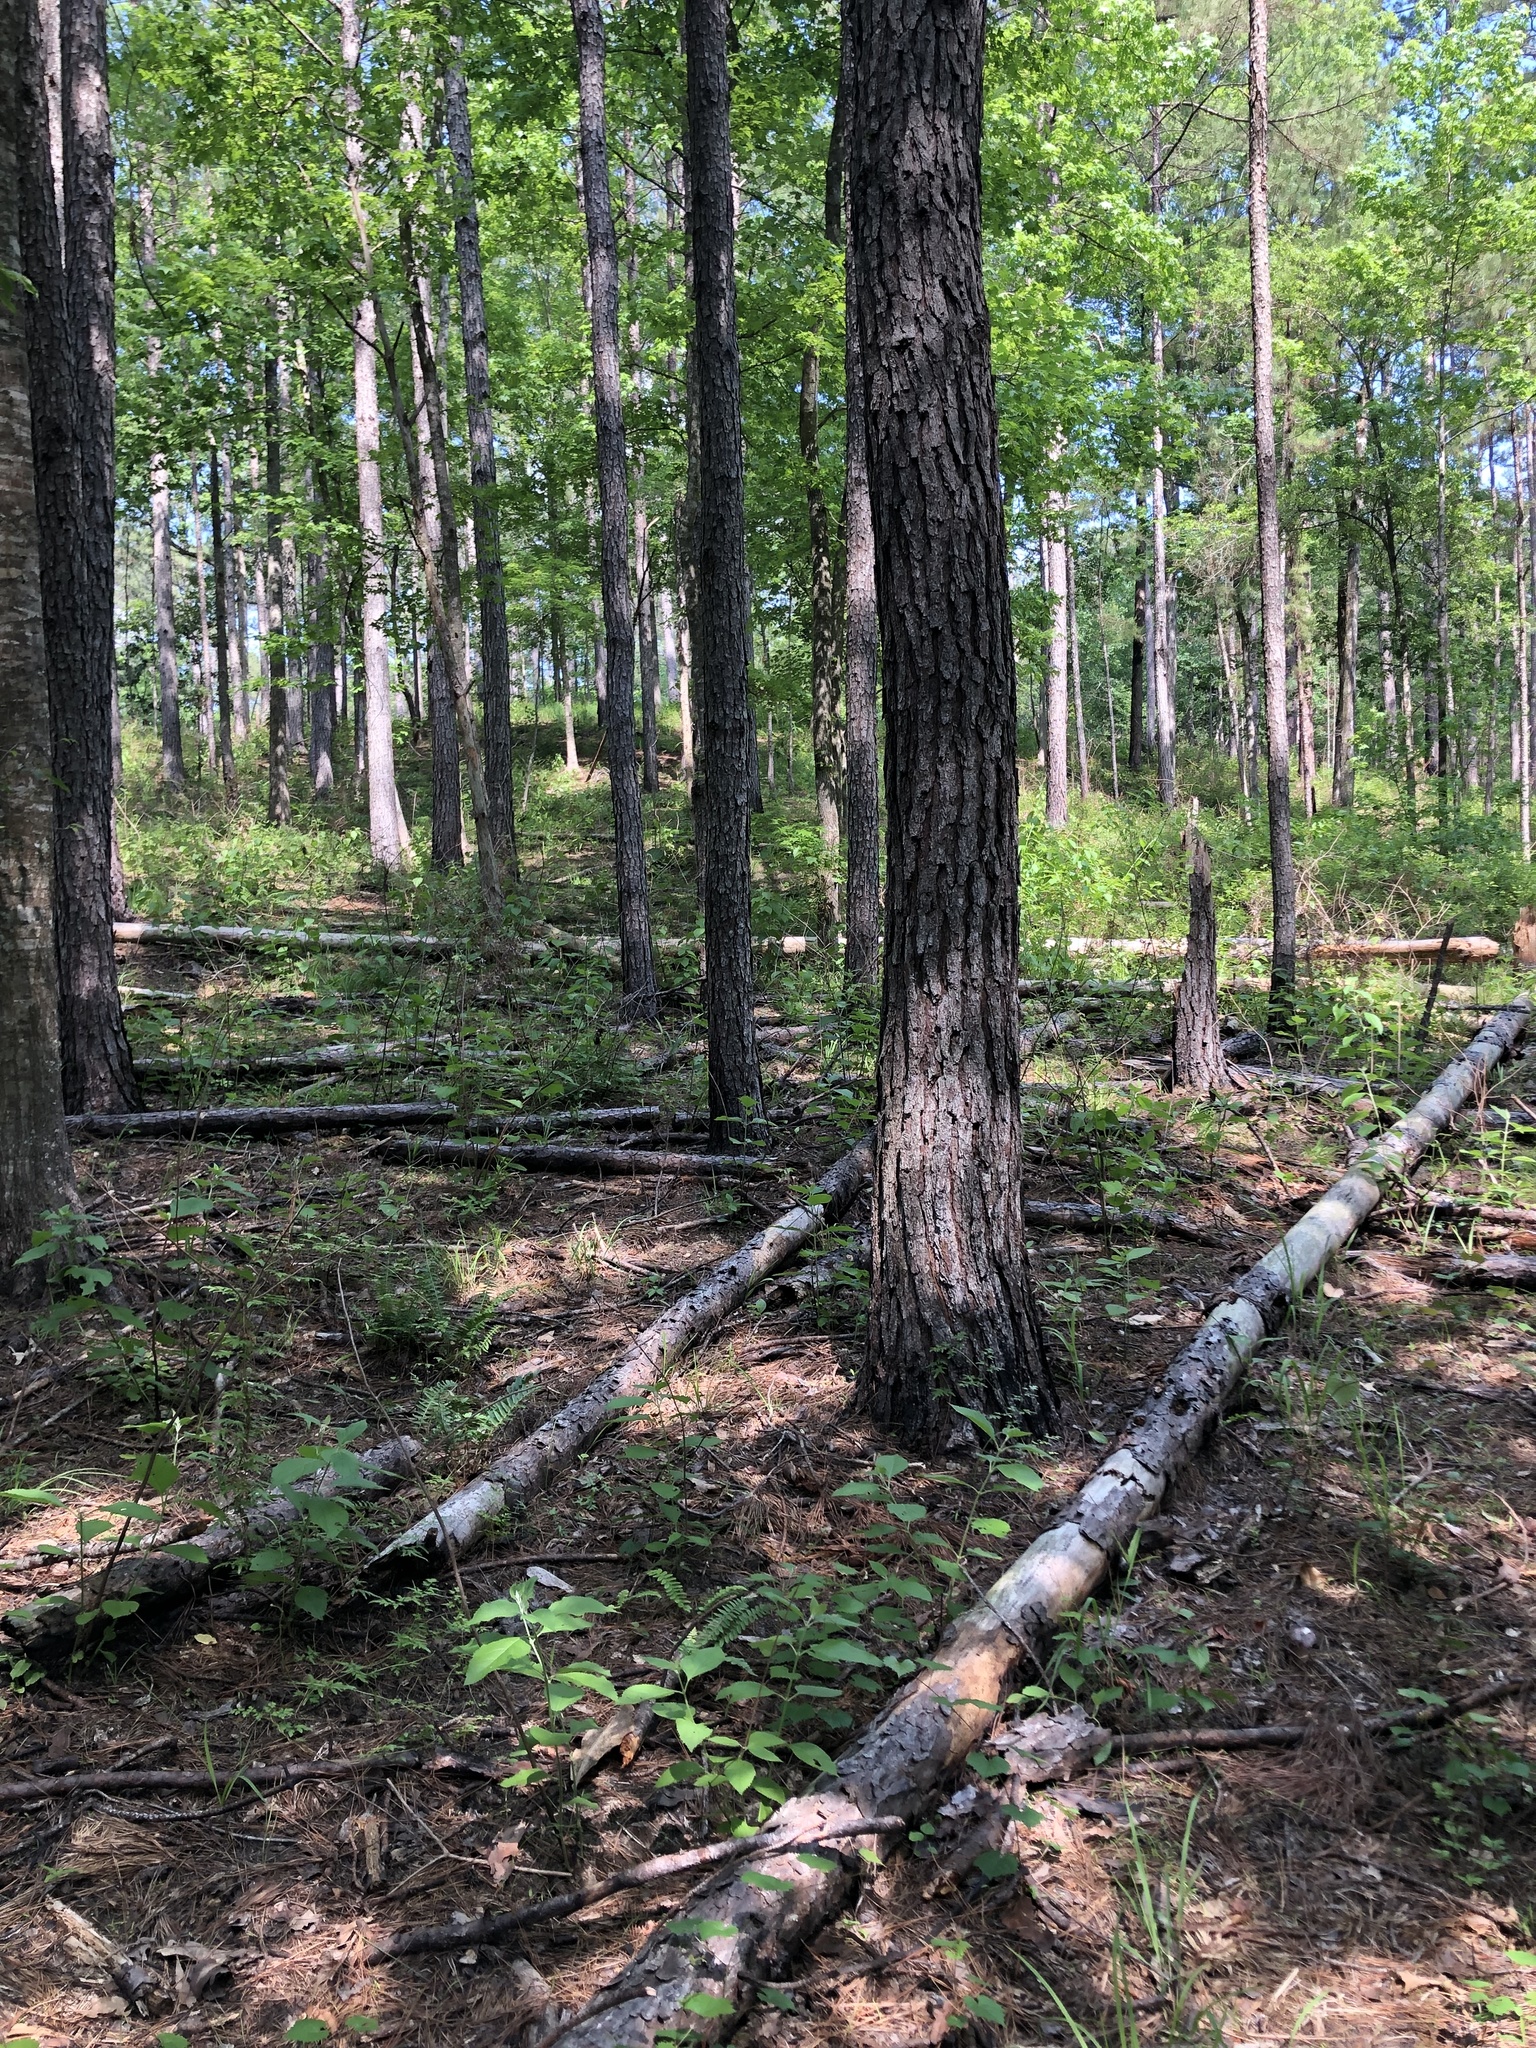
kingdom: Plantae
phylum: Tracheophyta
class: Magnoliopsida
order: Gentianales
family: Apocynaceae
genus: Asclepias
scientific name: Asclepias variegata
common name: Variegated milkweed
